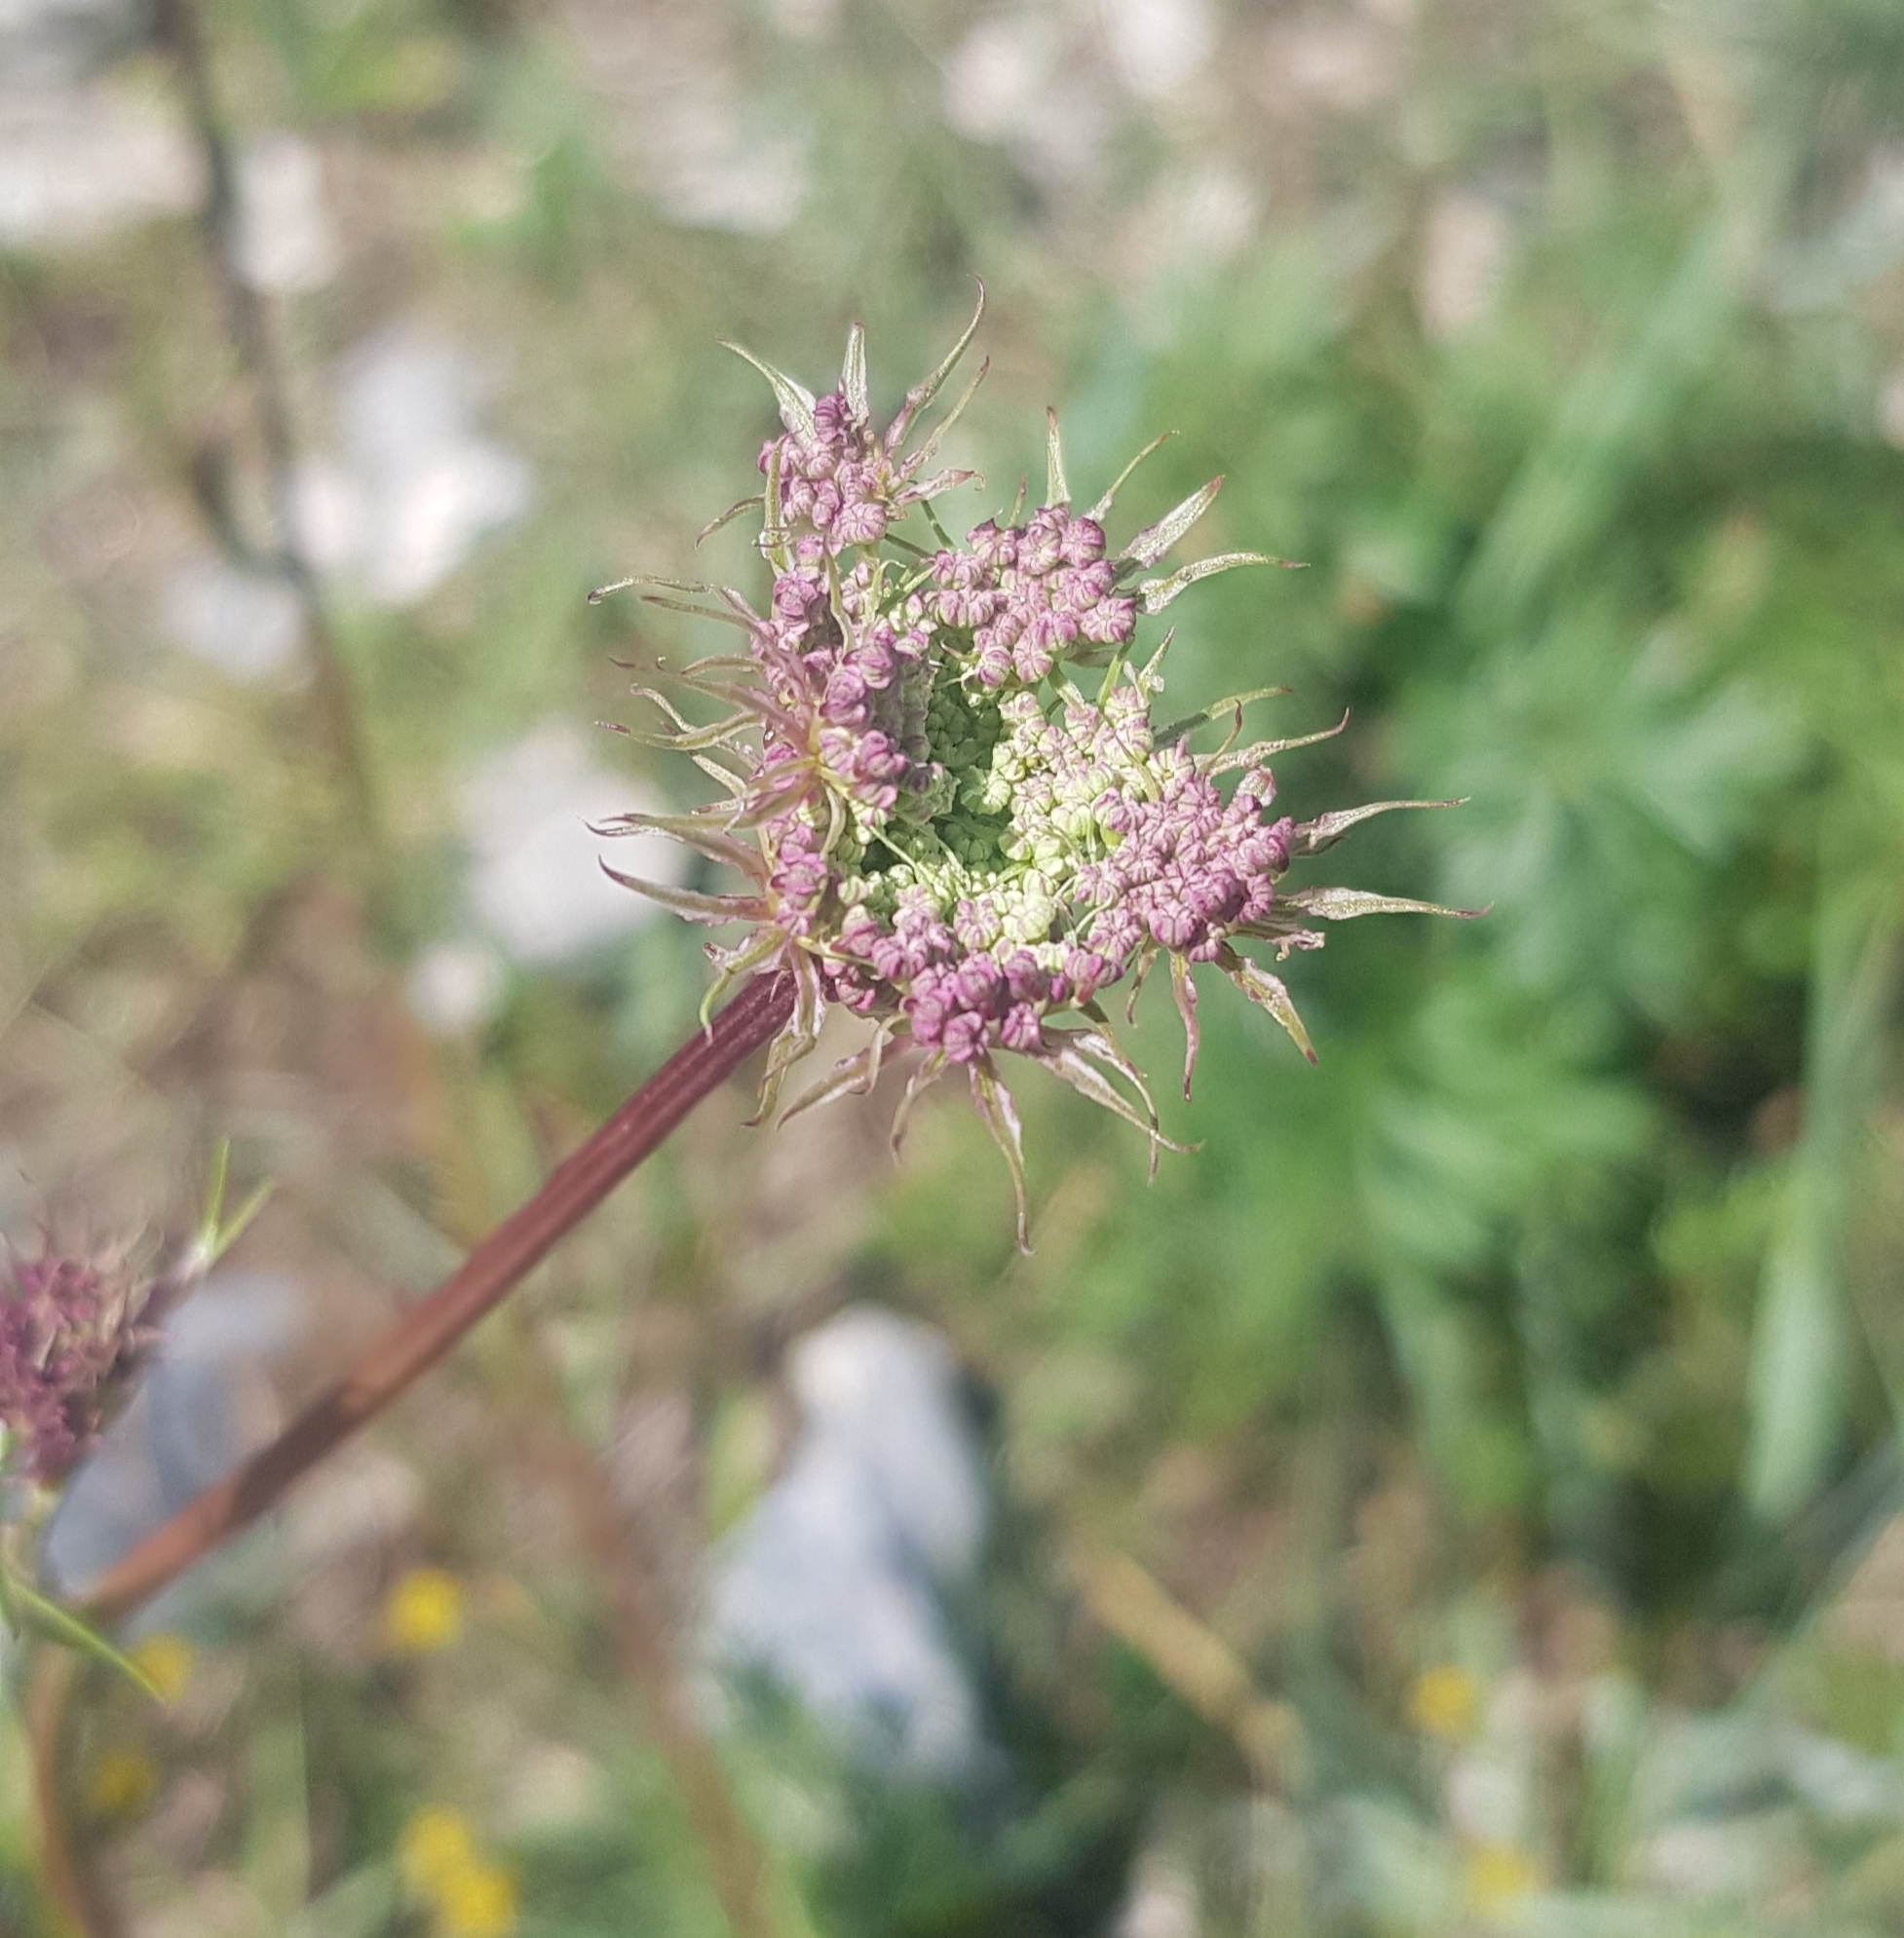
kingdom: Plantae
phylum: Tracheophyta
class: Magnoliopsida
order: Apiales
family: Apiaceae
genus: Kitagawia
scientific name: Kitagawia baicalensis
